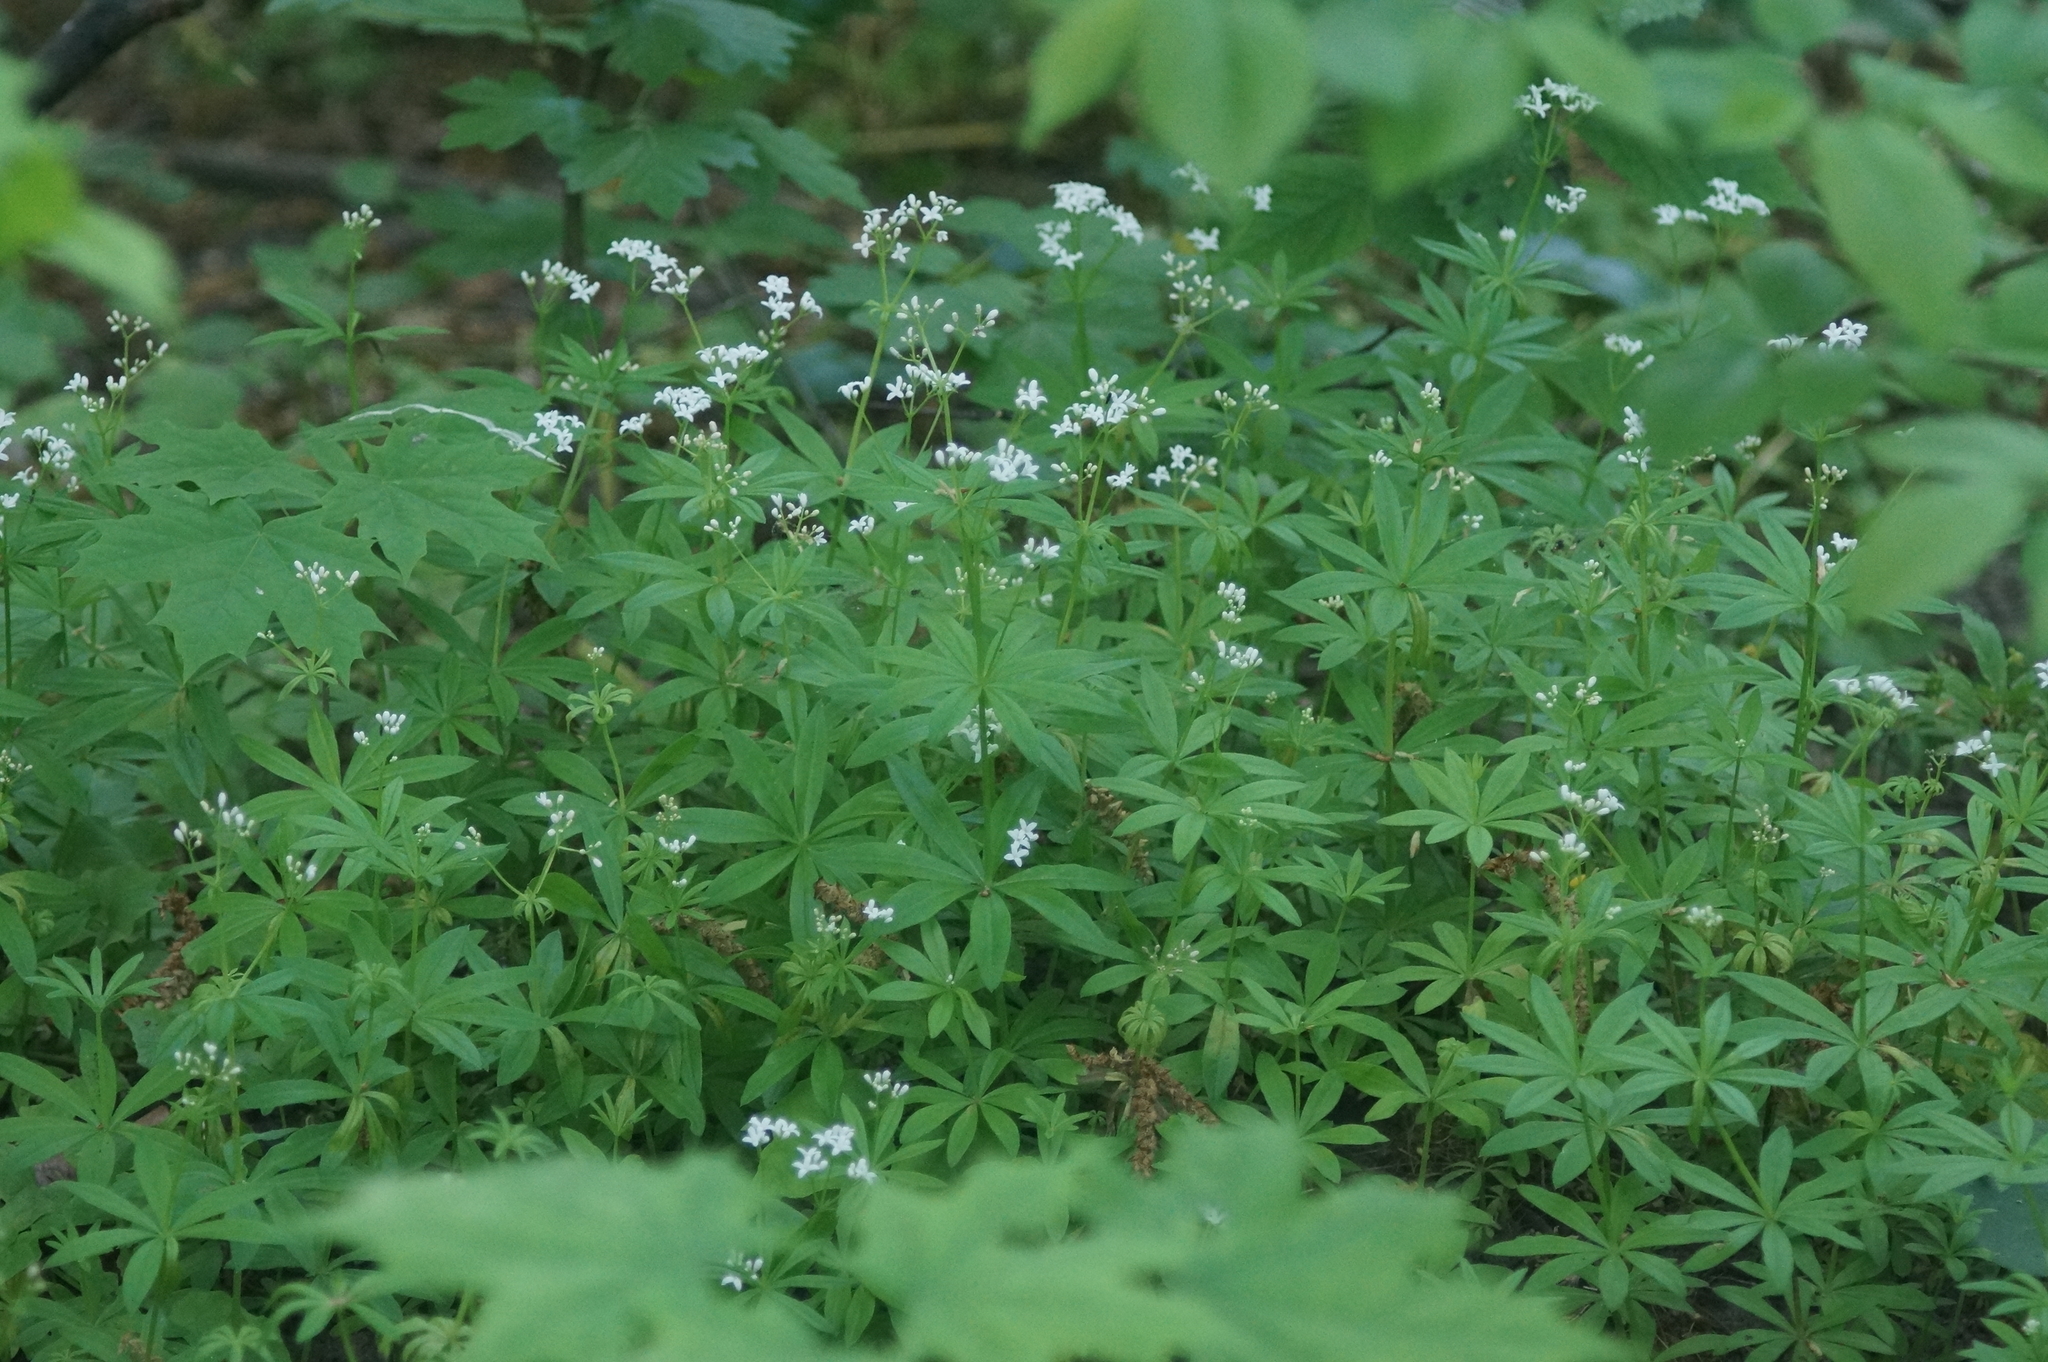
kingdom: Plantae
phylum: Tracheophyta
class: Magnoliopsida
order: Gentianales
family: Rubiaceae
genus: Galium
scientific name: Galium odoratum
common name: Sweet woodruff
